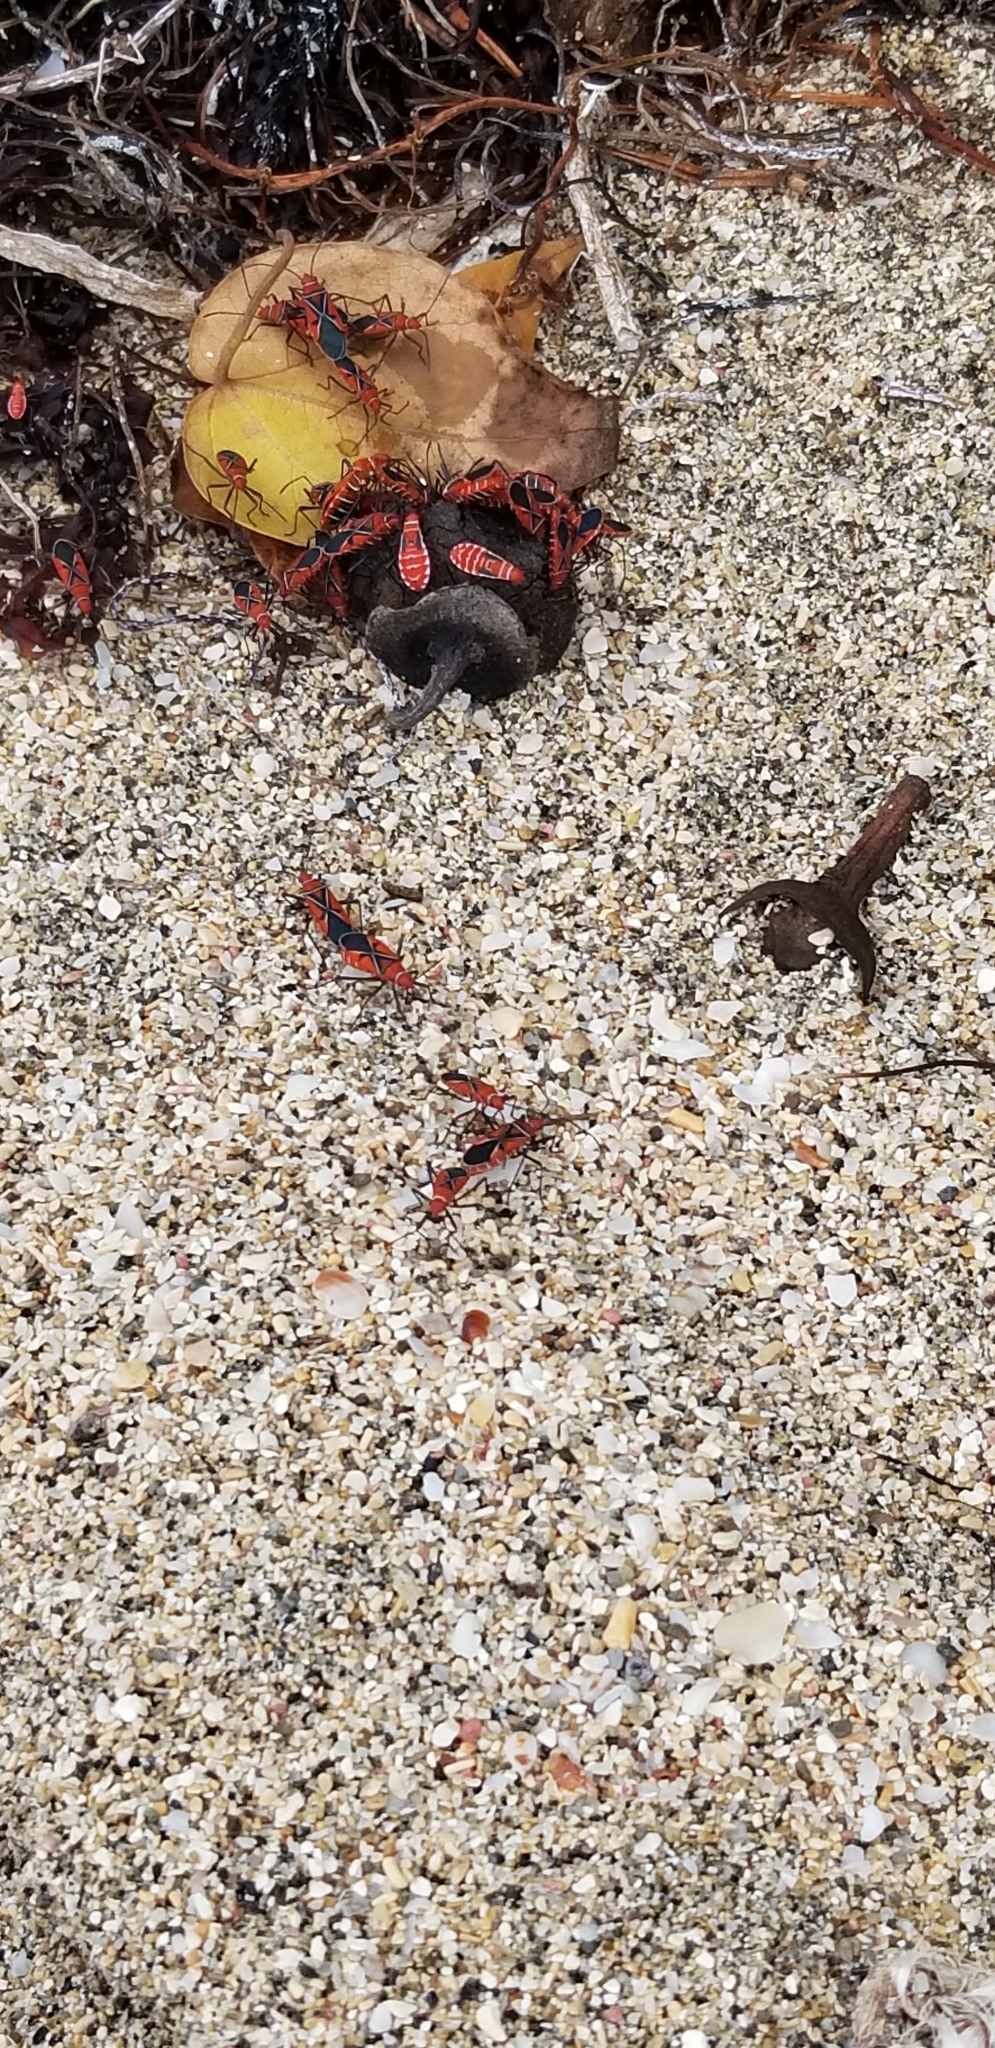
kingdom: Animalia
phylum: Arthropoda
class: Insecta
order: Hemiptera
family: Pyrrhocoridae
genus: Dysdercus
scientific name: Dysdercus andreae
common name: St. andrew's cotton stainer
